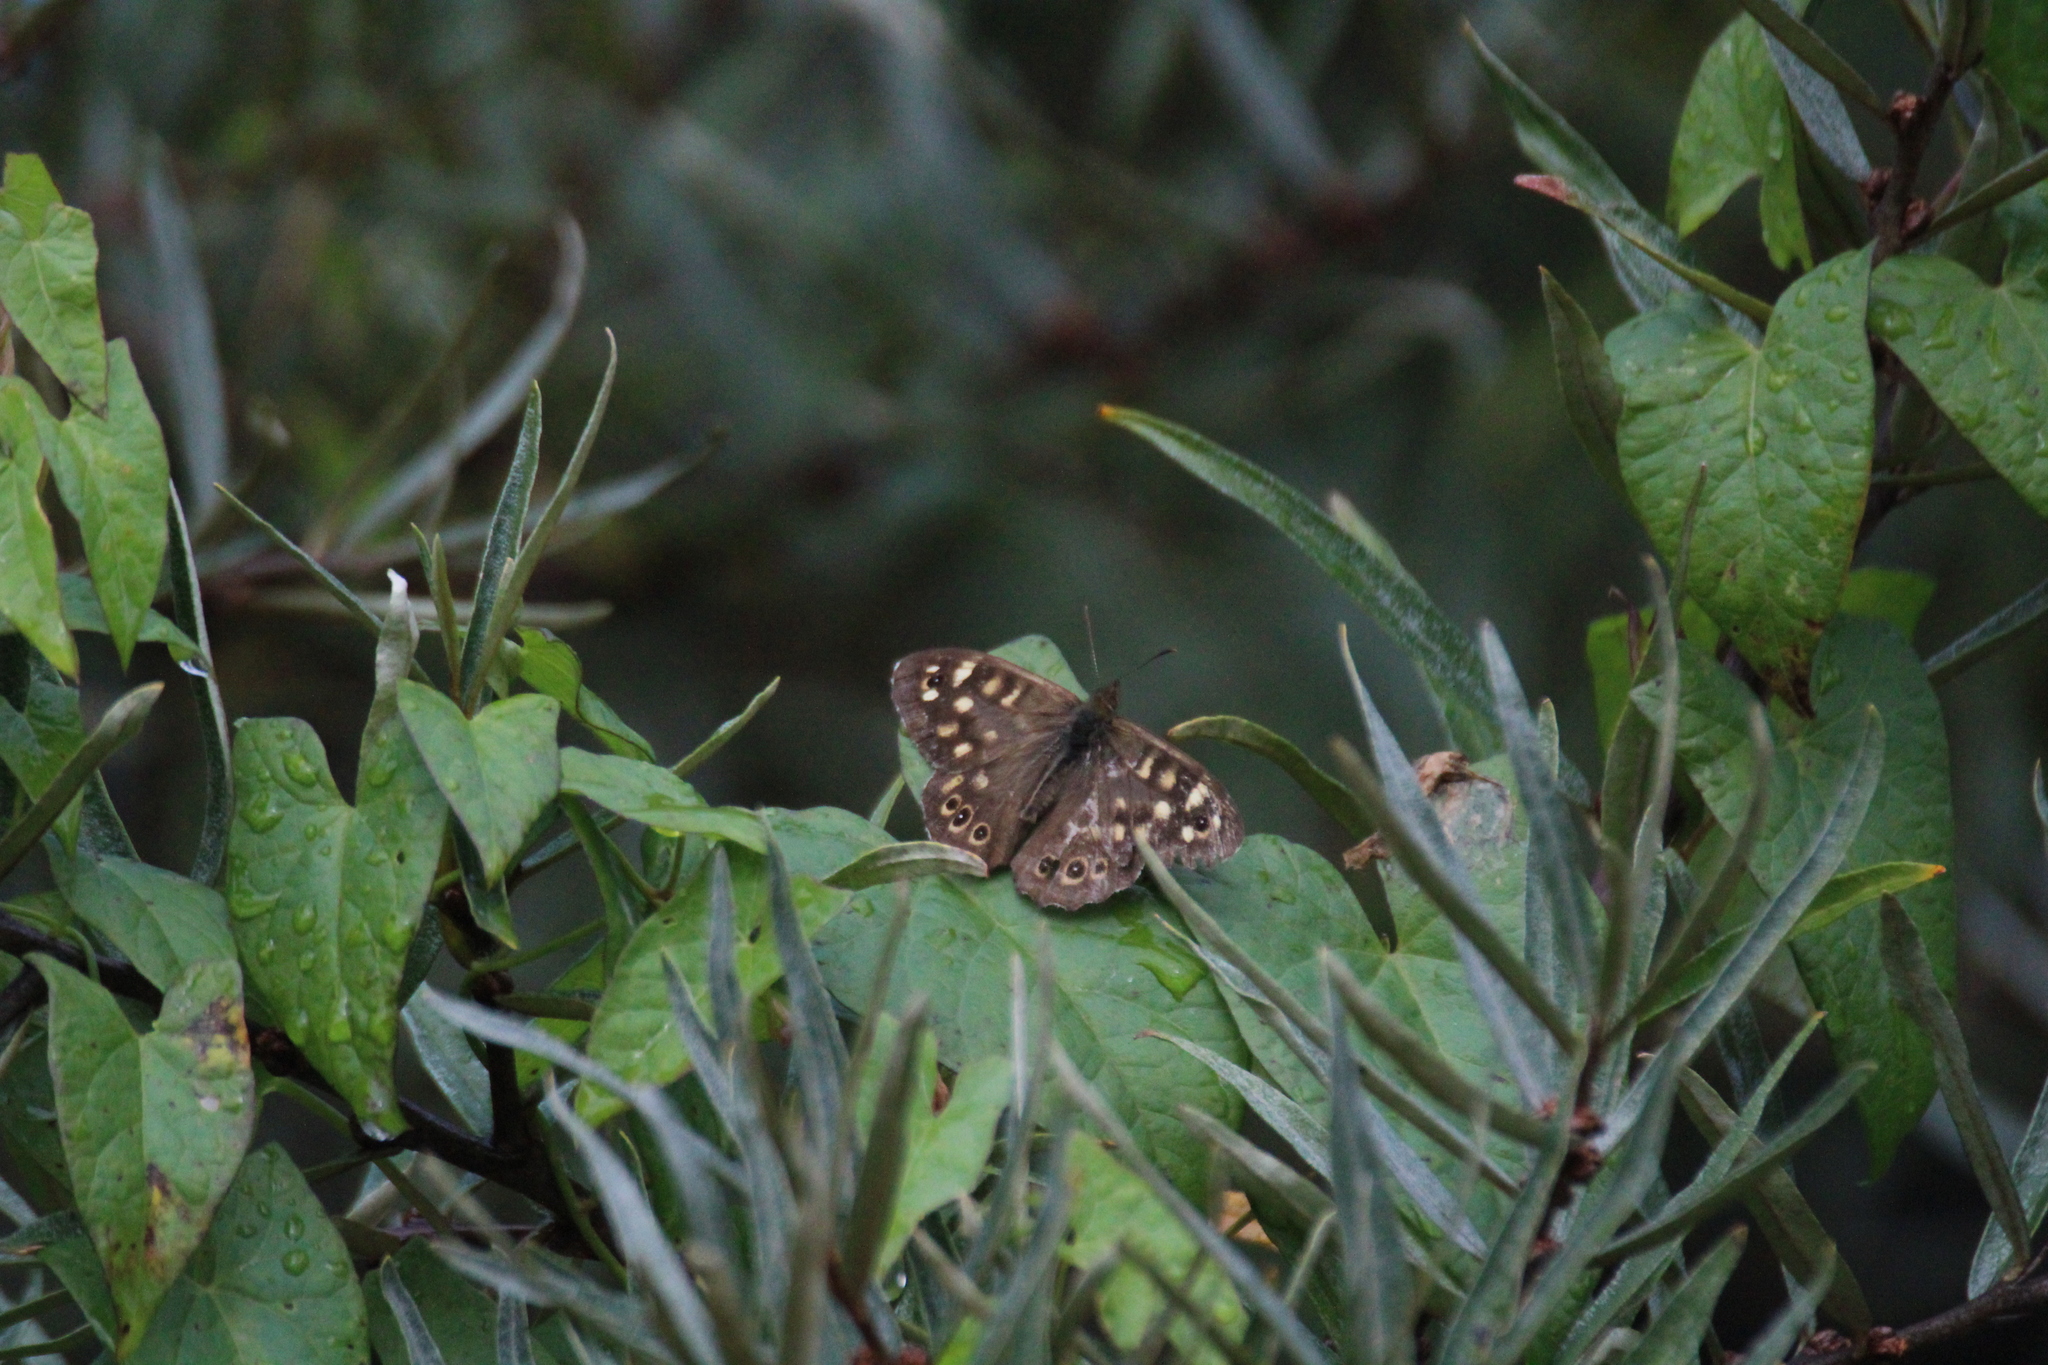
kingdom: Animalia
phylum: Arthropoda
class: Insecta
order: Lepidoptera
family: Nymphalidae
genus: Pararge
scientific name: Pararge aegeria
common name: Speckled wood
